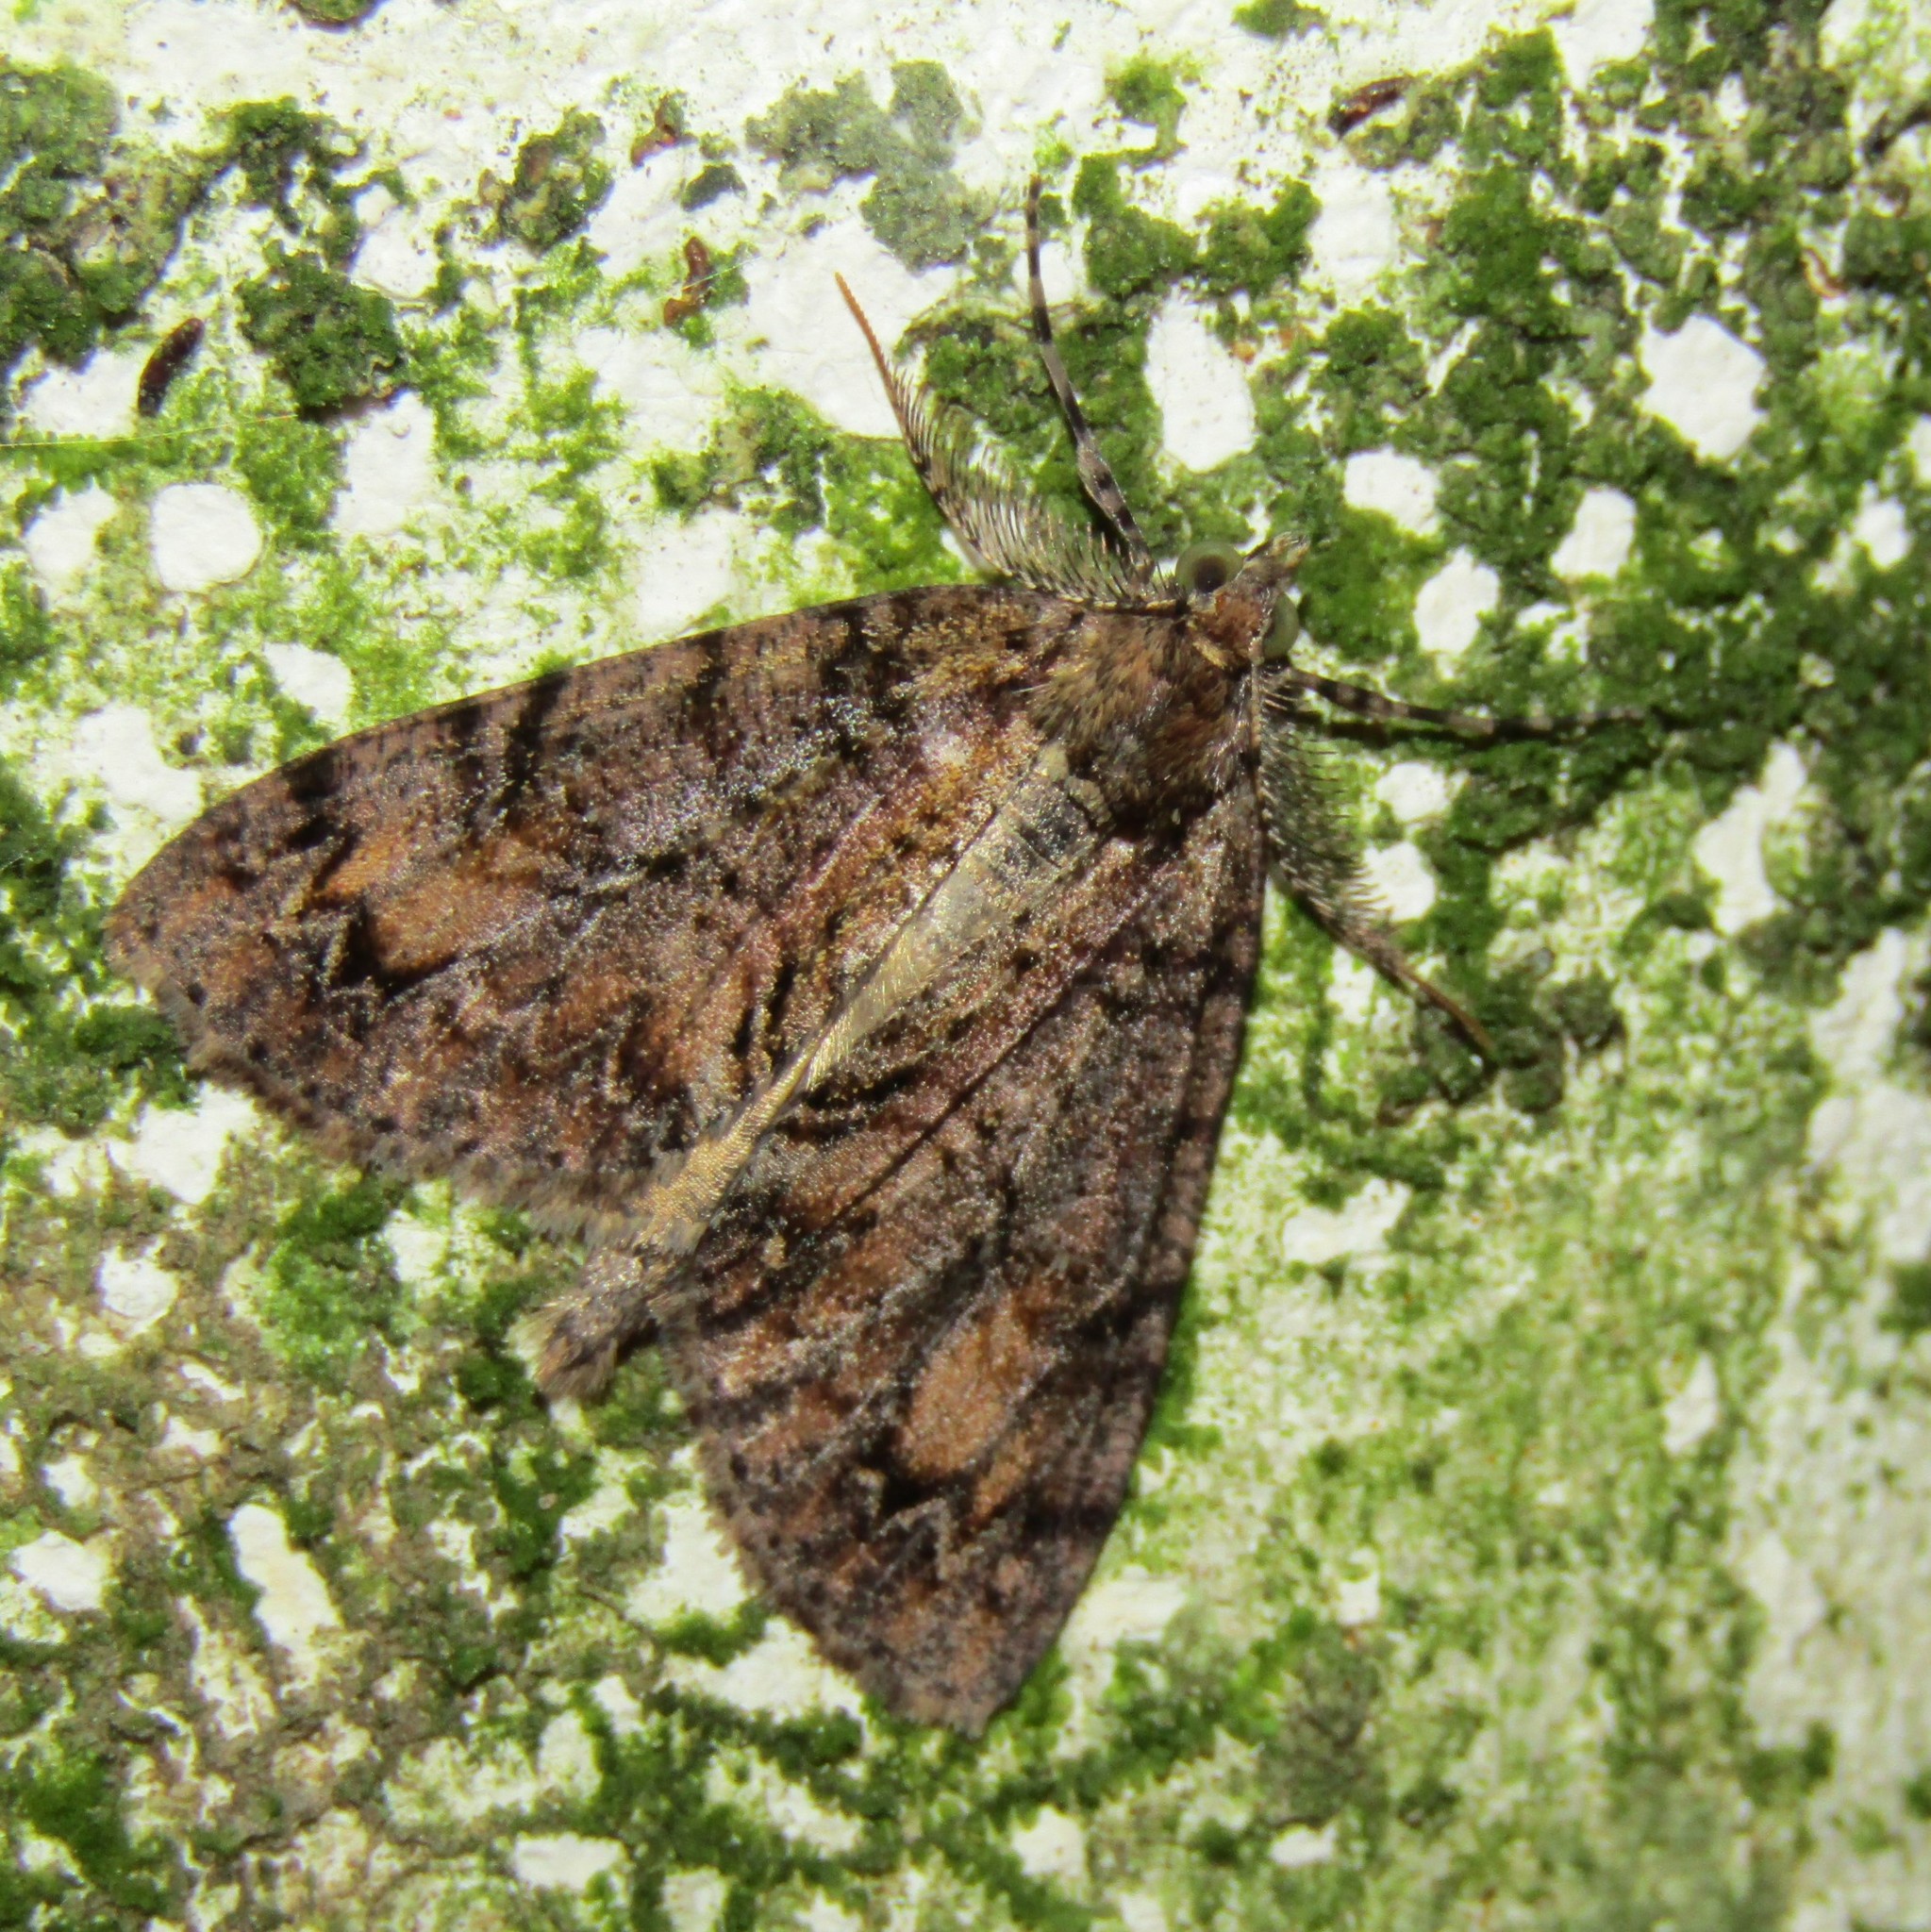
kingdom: Animalia
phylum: Arthropoda
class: Insecta
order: Lepidoptera
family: Geometridae
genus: Pseudocoremia
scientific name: Pseudocoremia suavis
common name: Common forest looper
